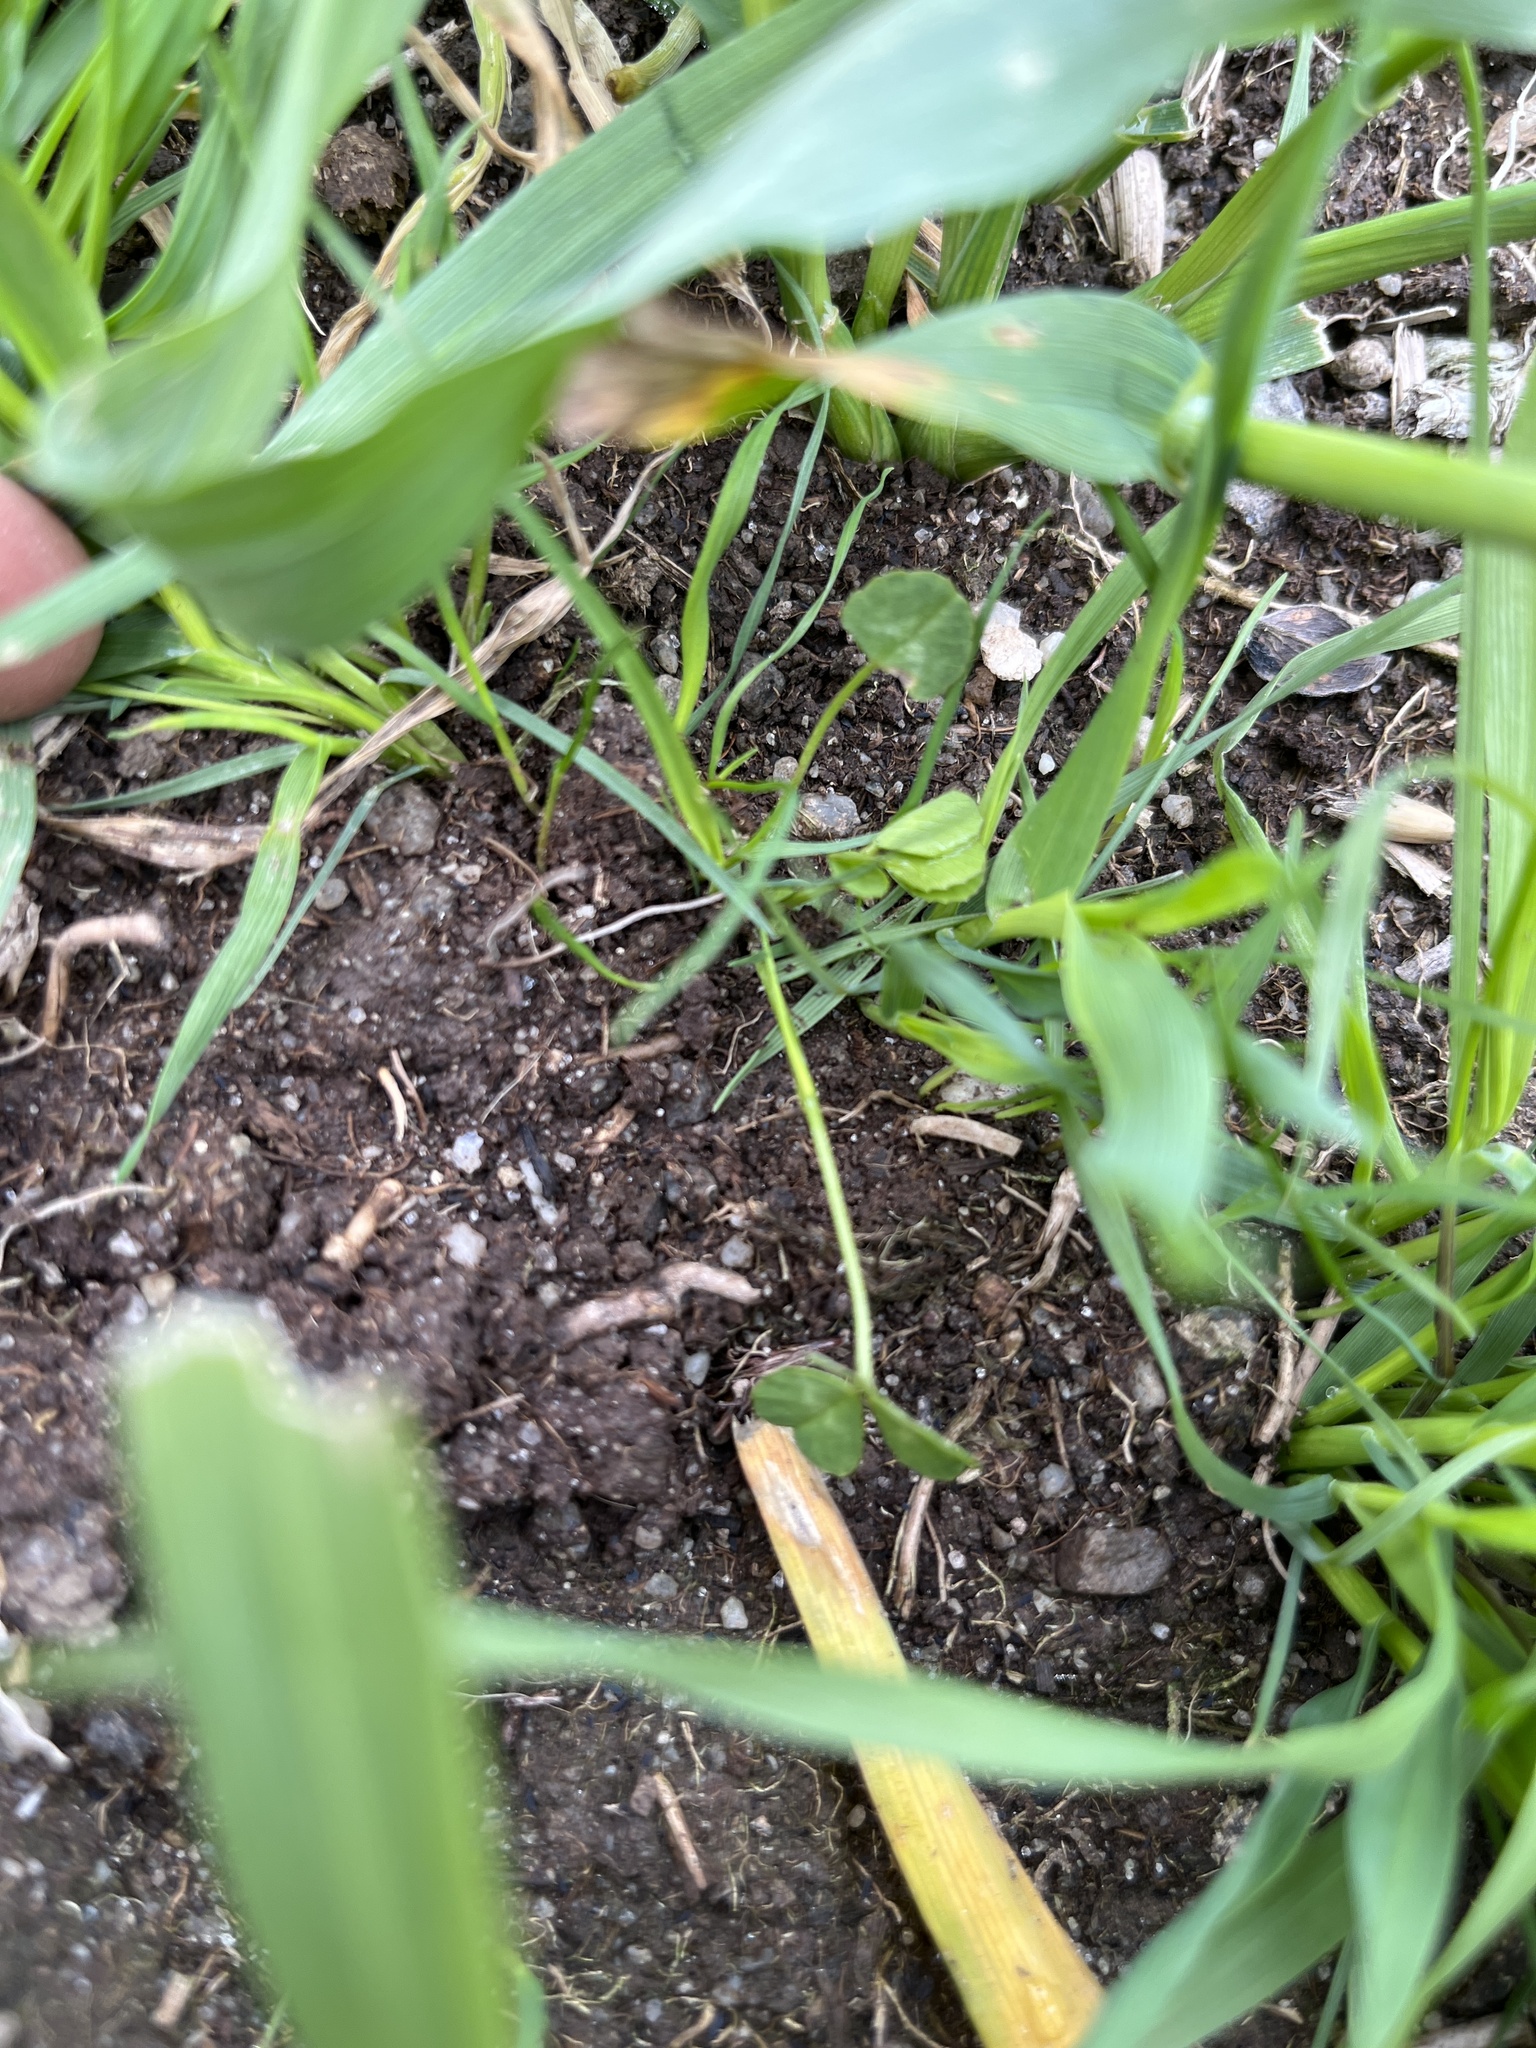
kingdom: Plantae
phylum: Tracheophyta
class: Magnoliopsida
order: Fabales
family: Fabaceae
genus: Trifolium
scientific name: Trifolium repens
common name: White clover
